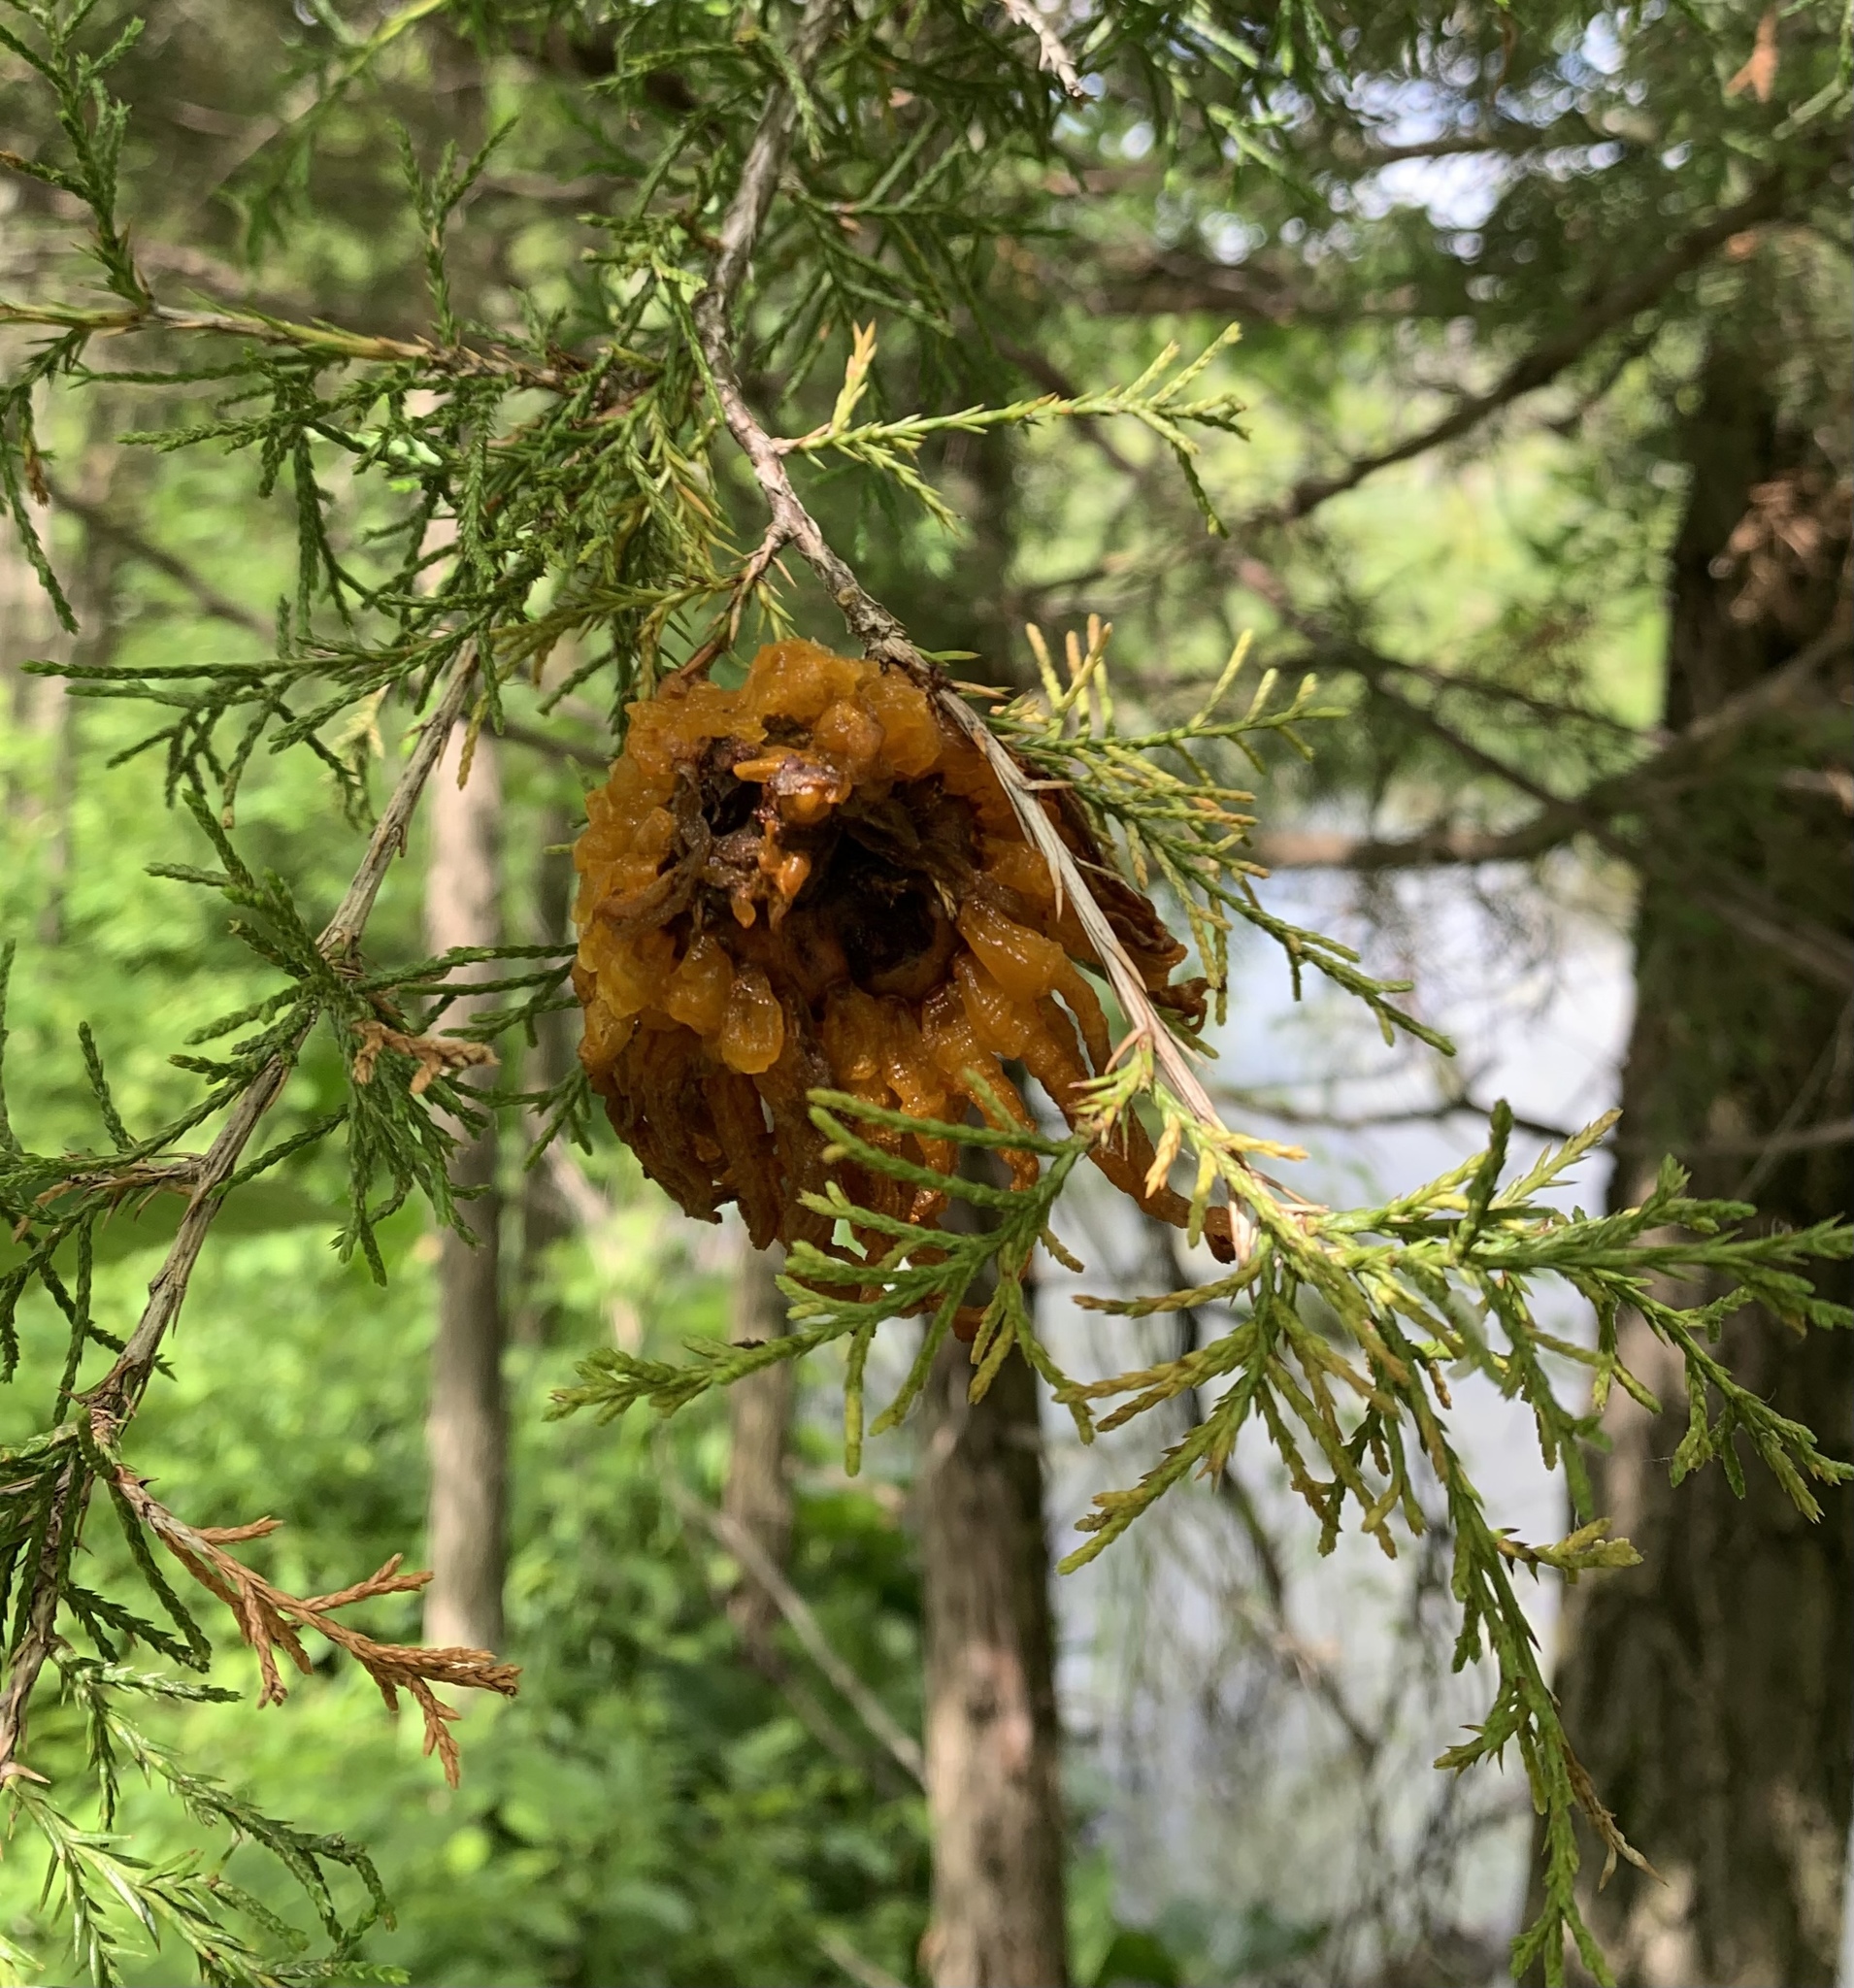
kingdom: Fungi
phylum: Basidiomycota
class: Pucciniomycetes
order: Pucciniales
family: Gymnosporangiaceae
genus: Gymnosporangium
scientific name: Gymnosporangium juniperi-virginianae
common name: Juniper-apple rust
